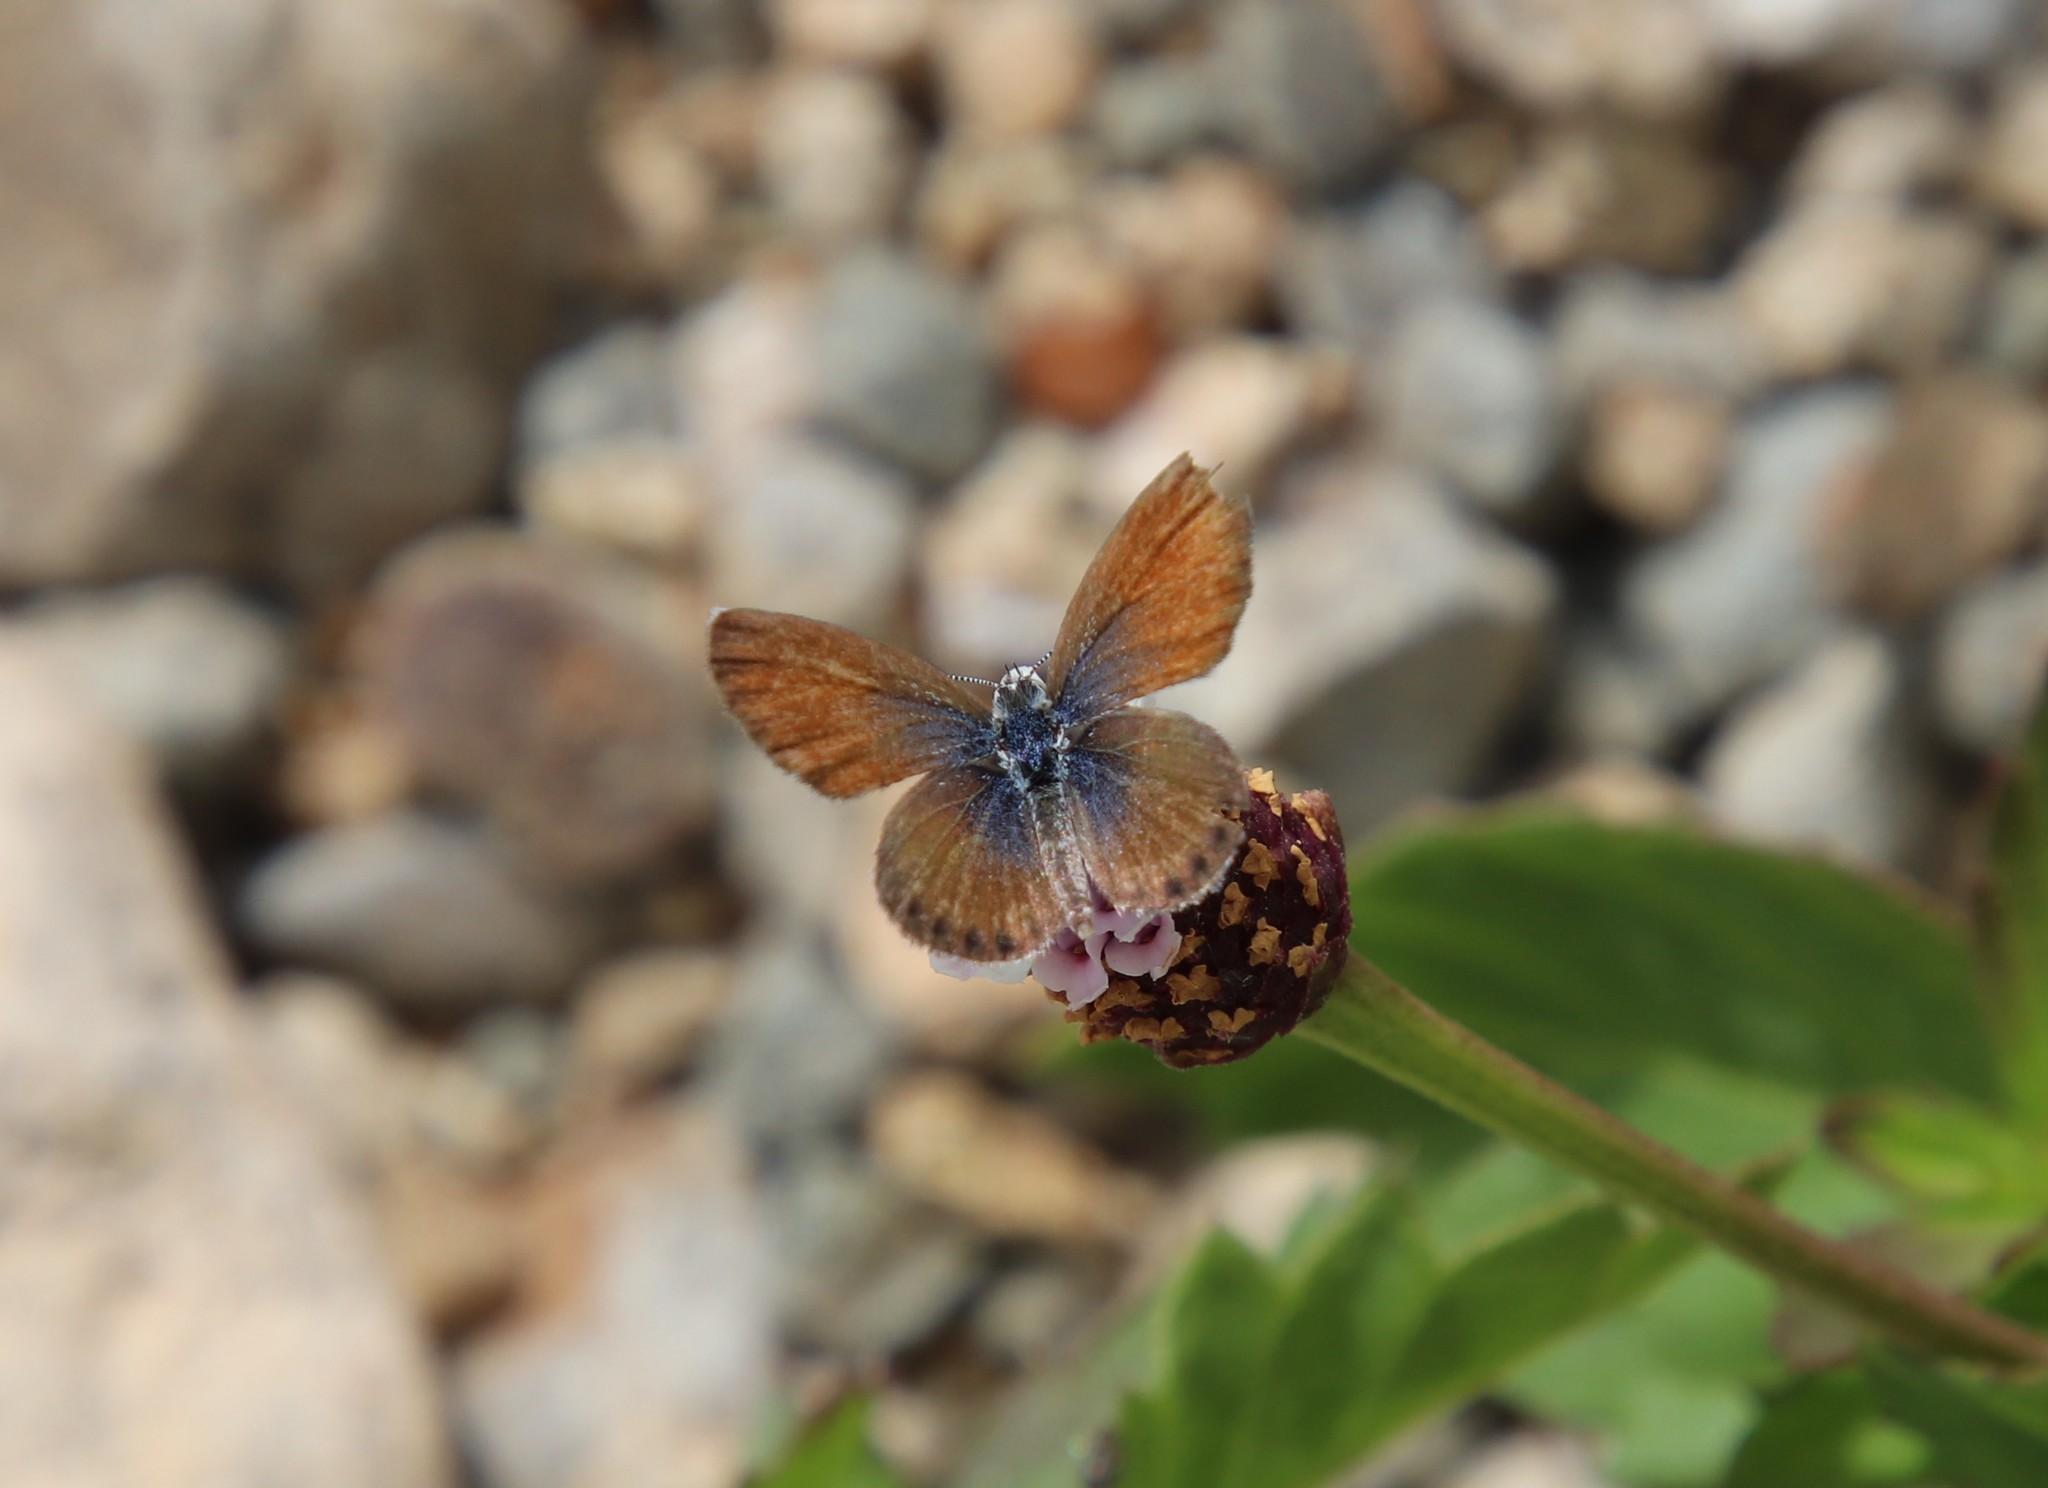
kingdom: Animalia
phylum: Arthropoda
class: Insecta
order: Lepidoptera
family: Lycaenidae
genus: Brephidium
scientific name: Brephidium exilis
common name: Pygmy blue
